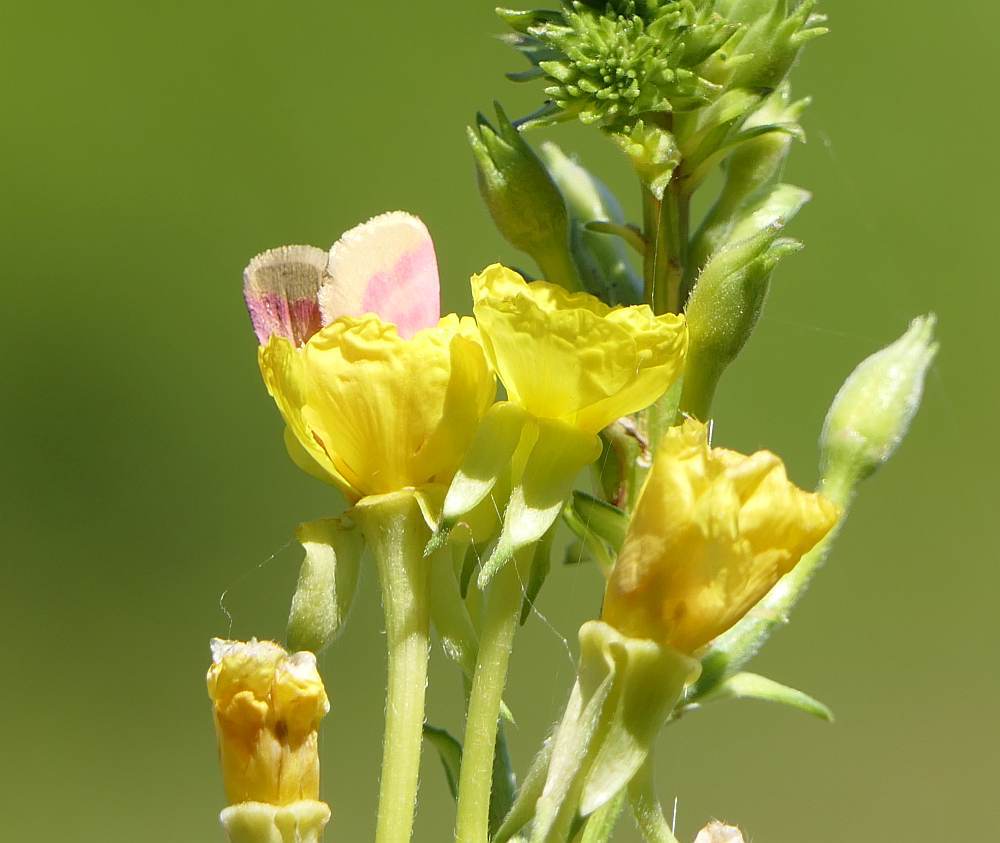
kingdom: Animalia
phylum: Arthropoda
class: Insecta
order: Lepidoptera
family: Noctuidae
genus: Schinia
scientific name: Schinia florida
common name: Primrose moth
